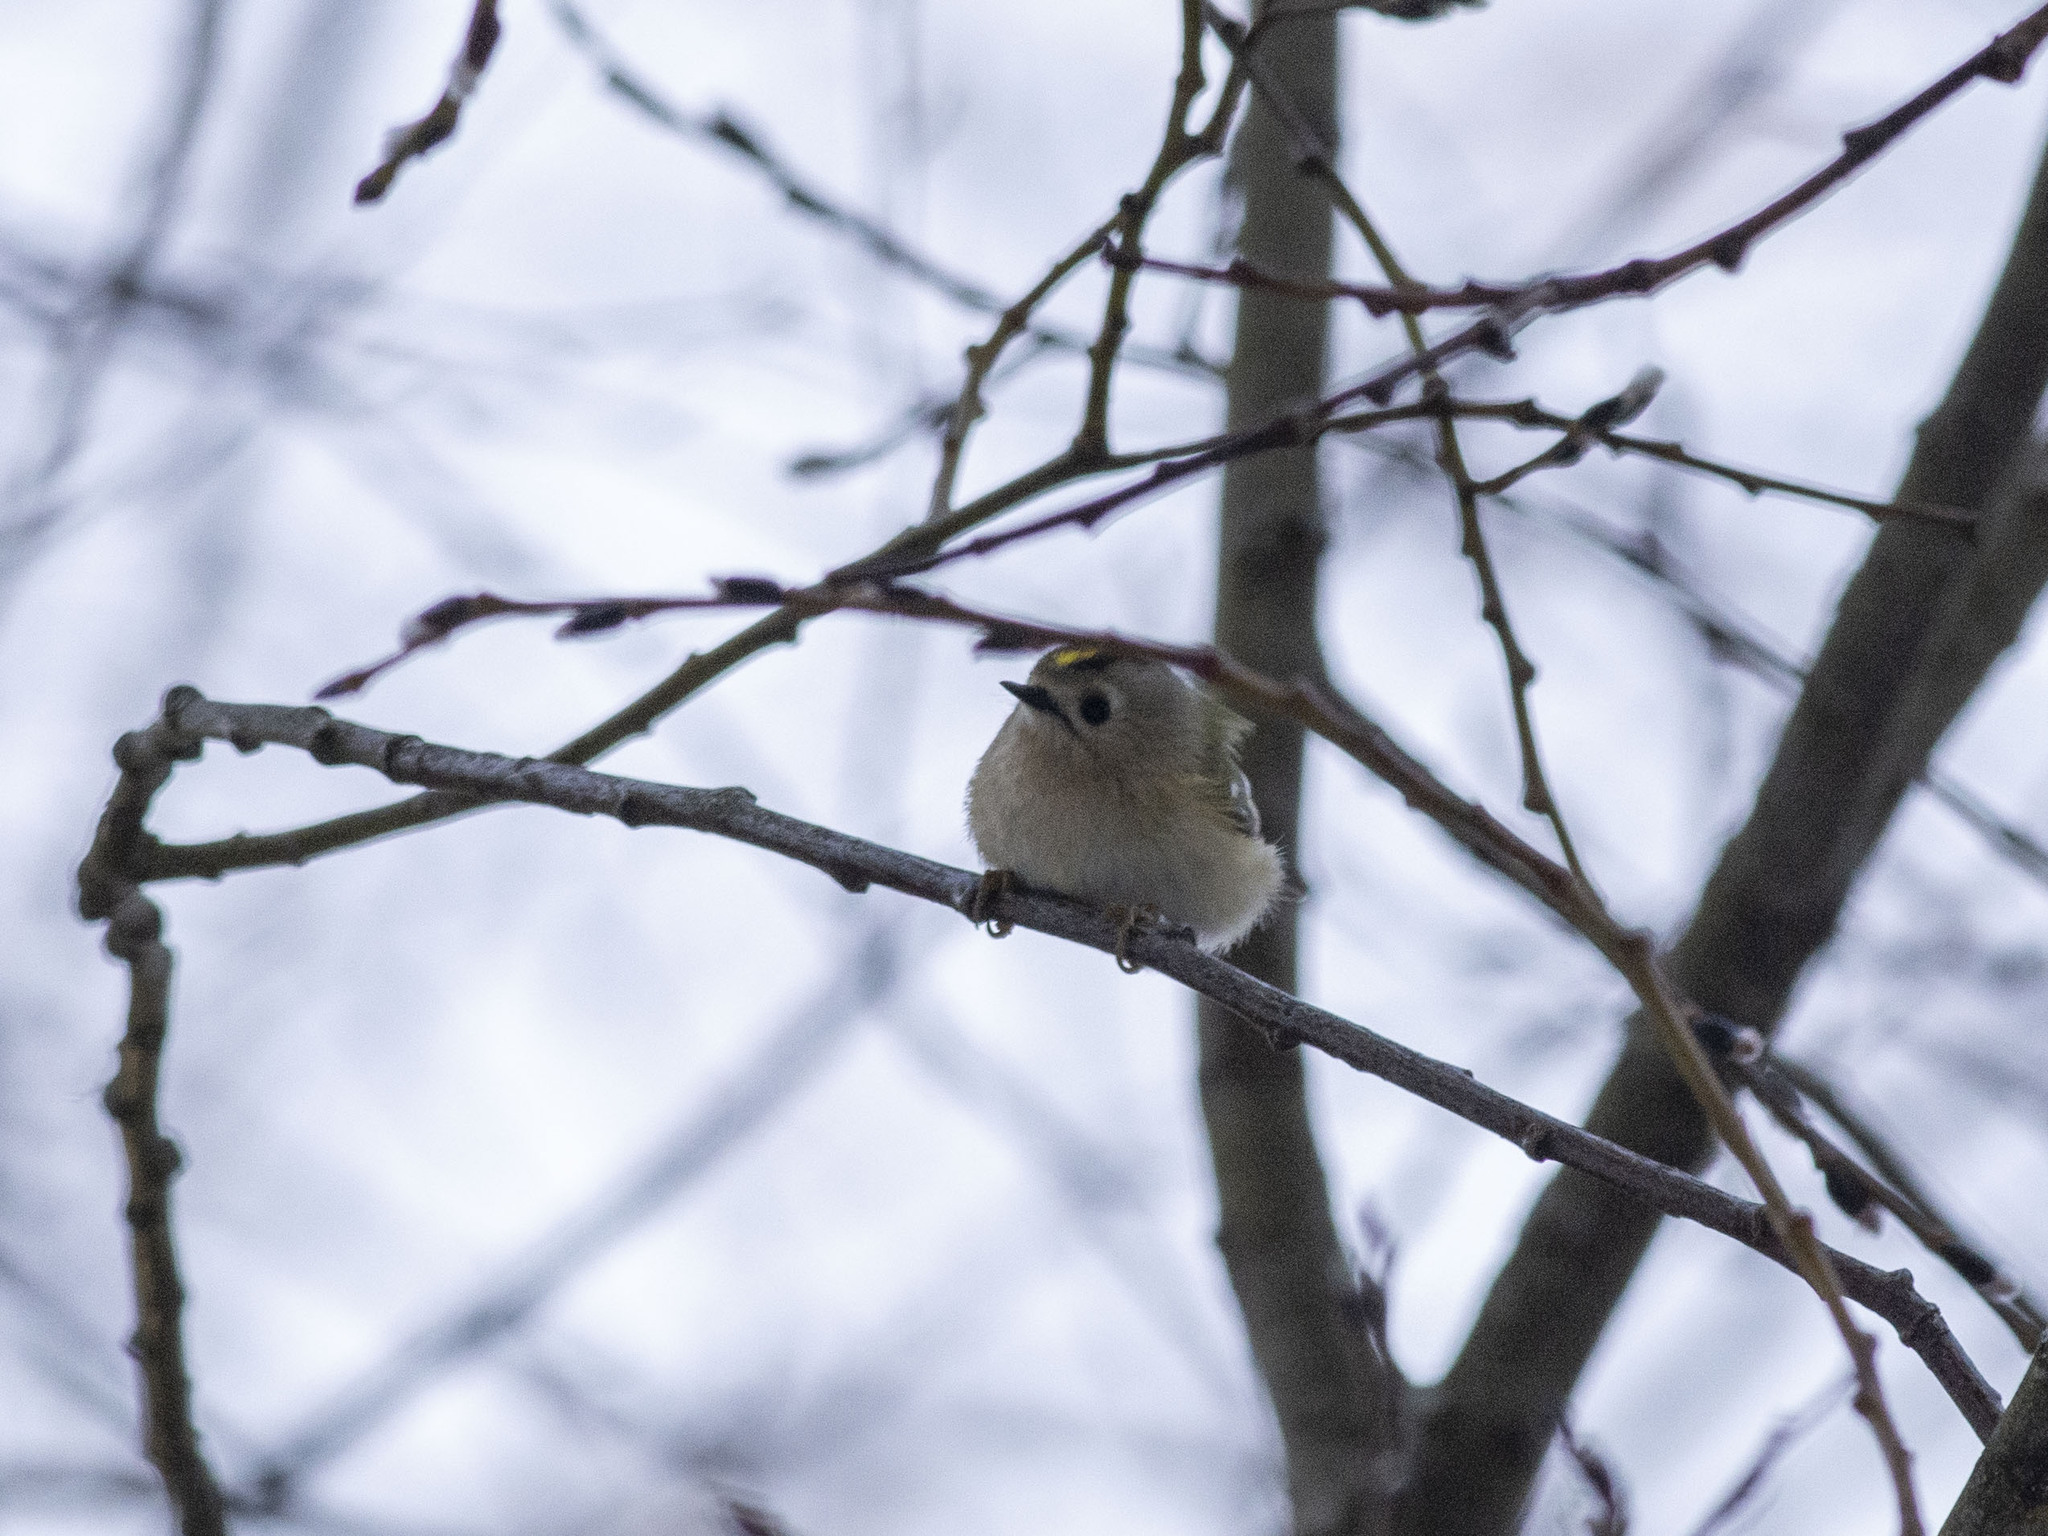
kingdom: Animalia
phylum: Chordata
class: Aves
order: Passeriformes
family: Regulidae
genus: Regulus
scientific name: Regulus regulus
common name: Goldcrest
